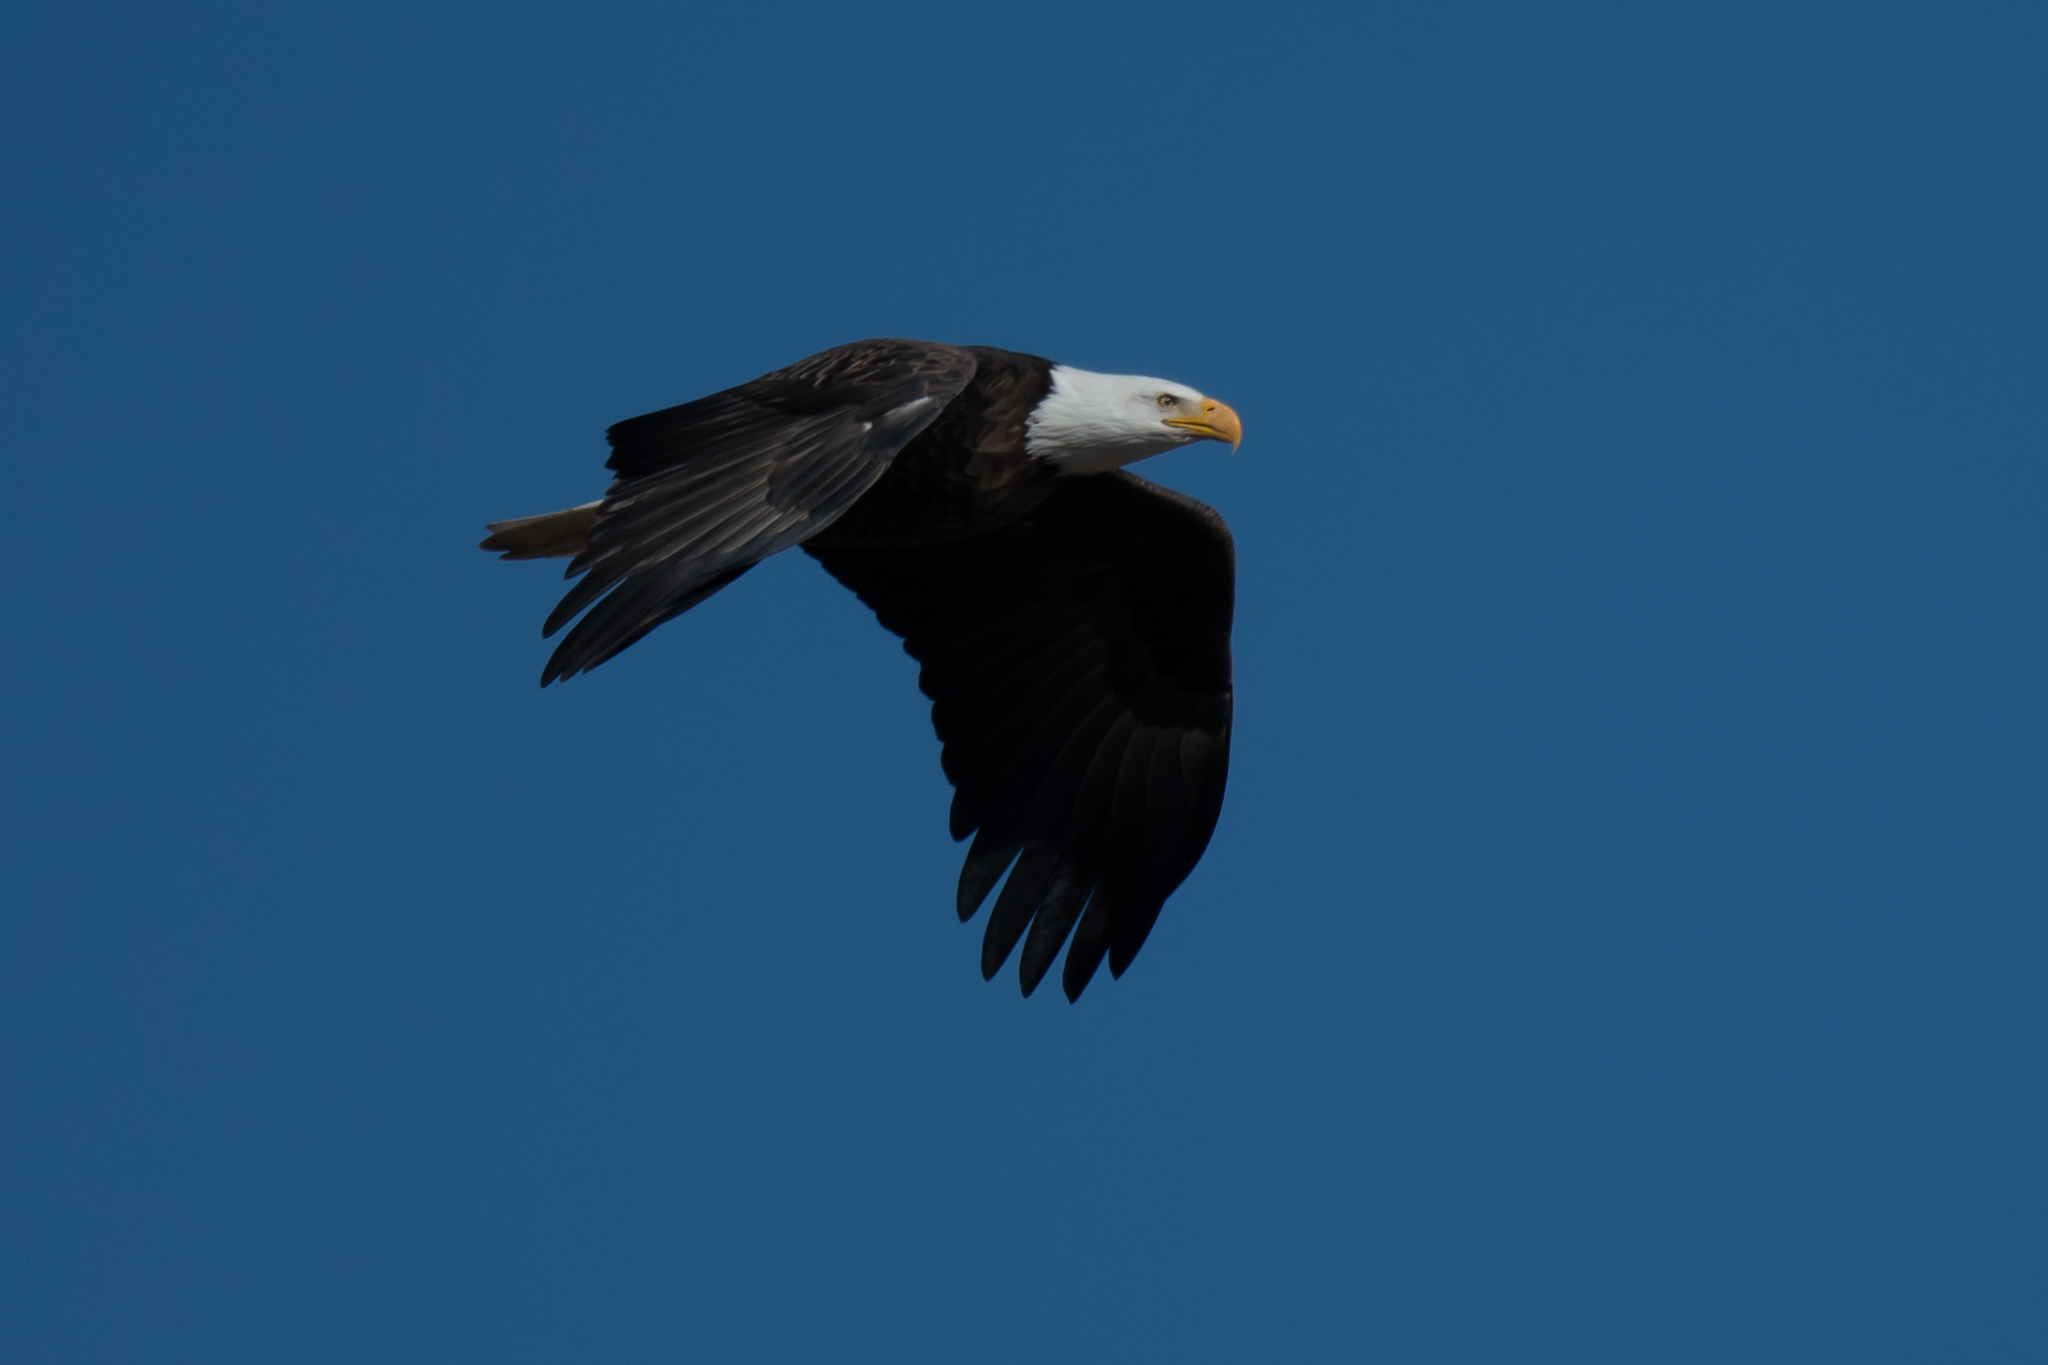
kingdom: Animalia
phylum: Chordata
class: Aves
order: Accipitriformes
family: Accipitridae
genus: Haliaeetus
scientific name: Haliaeetus leucocephalus
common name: Bald eagle
